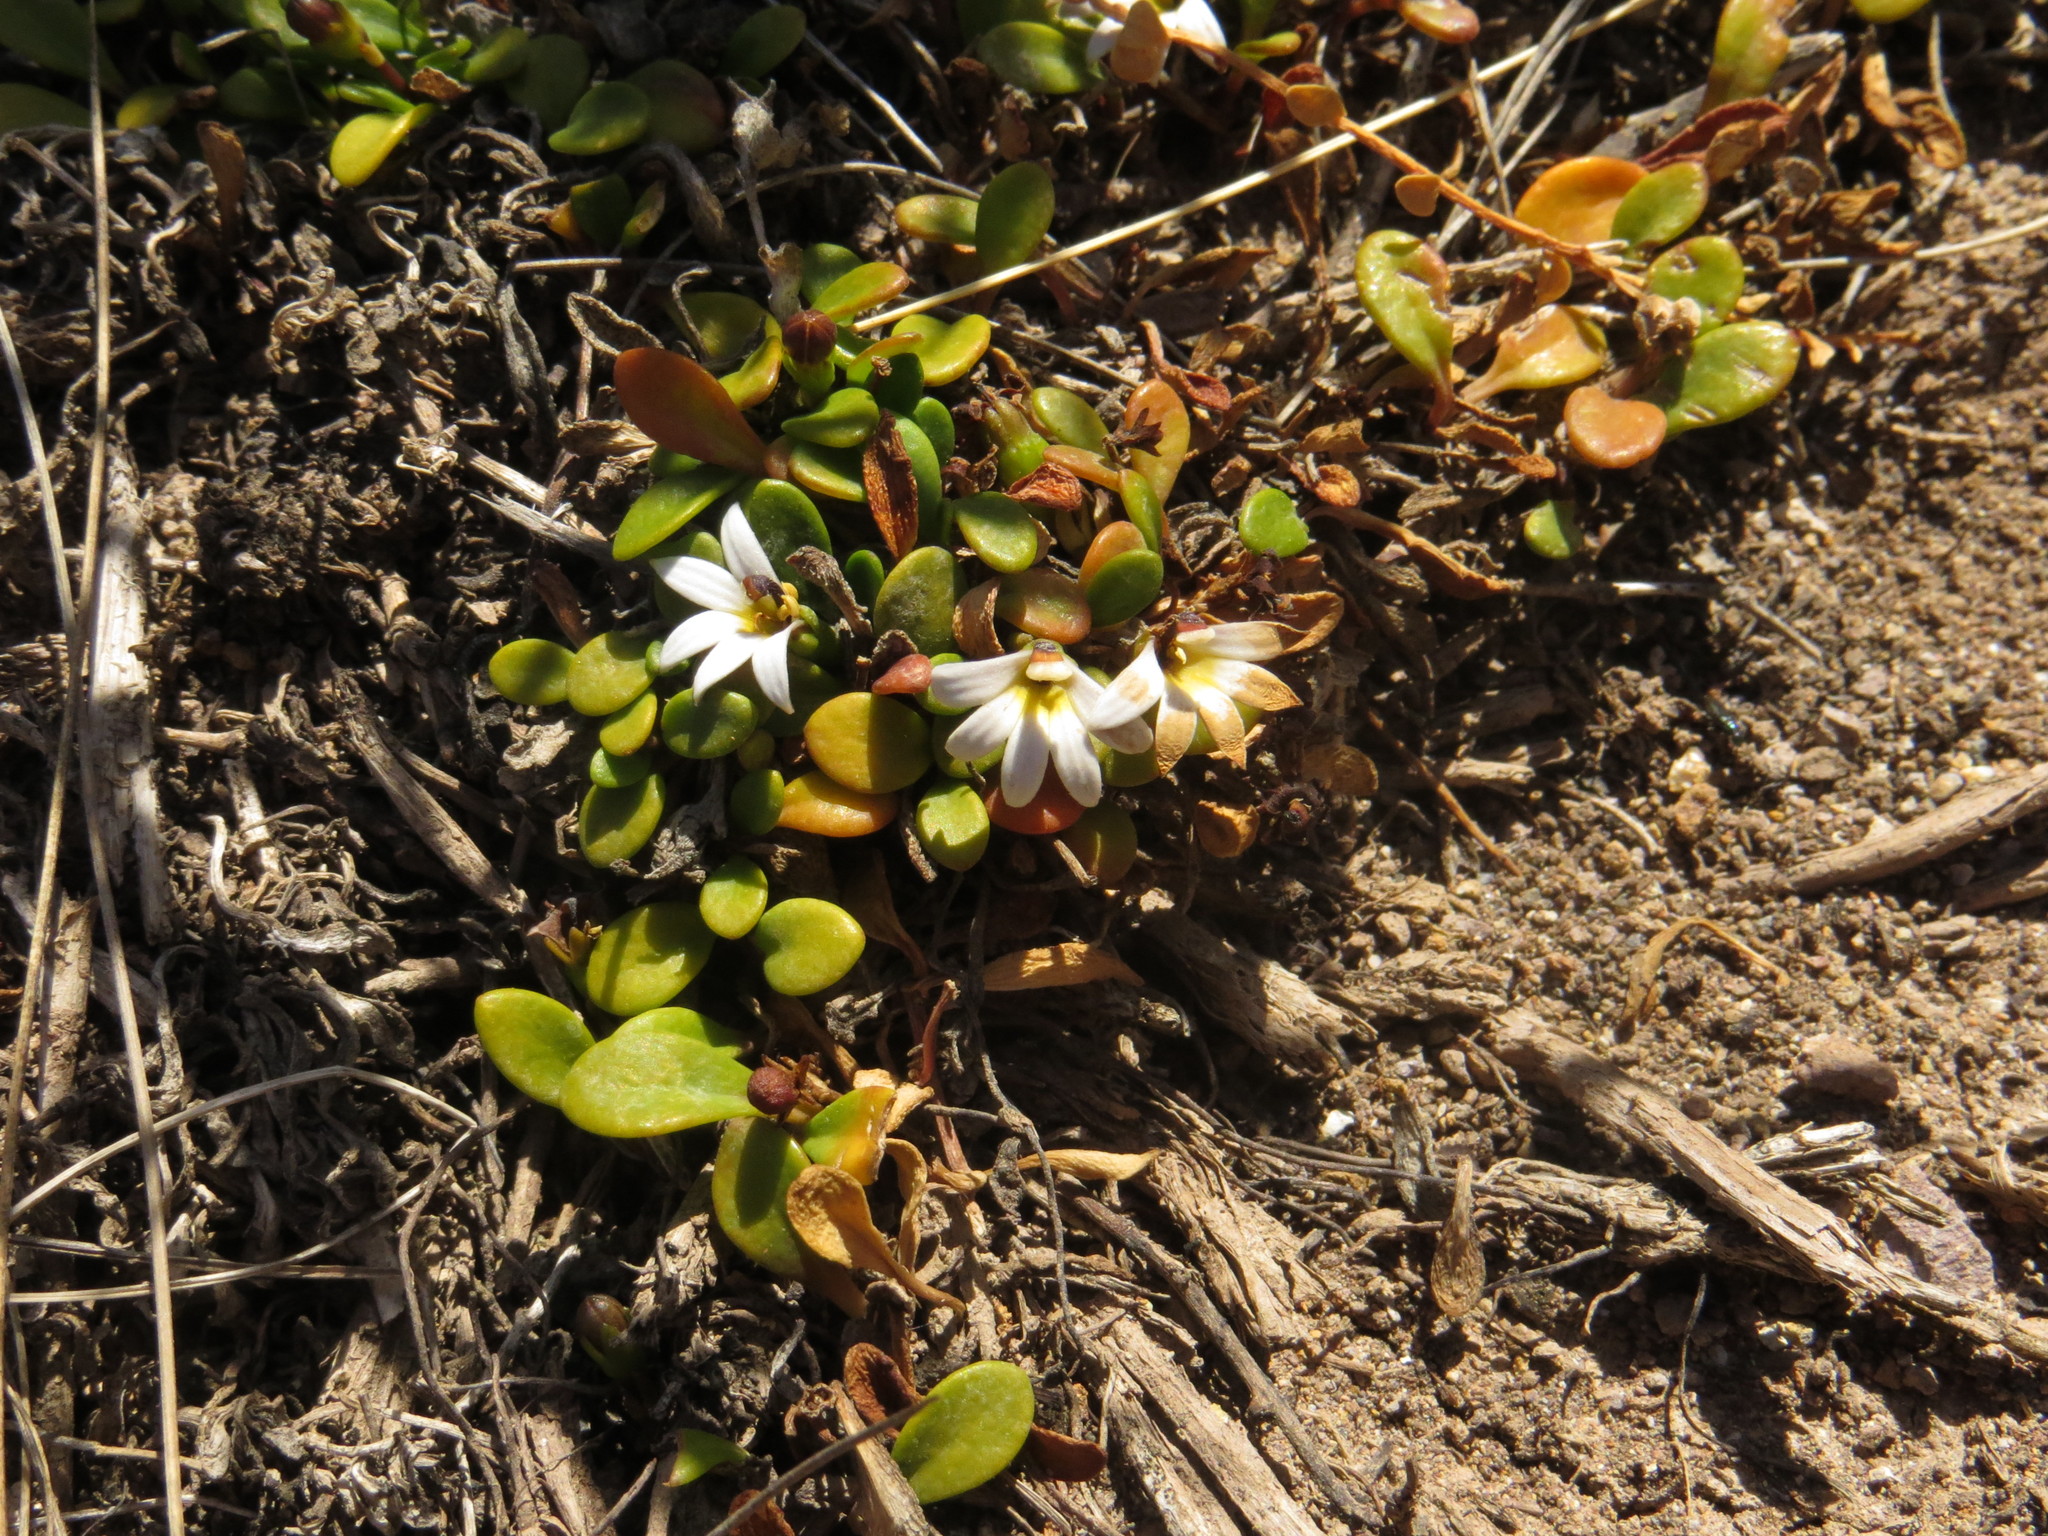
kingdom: Plantae
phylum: Tracheophyta
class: Magnoliopsida
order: Asterales
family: Goodeniaceae
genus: Goodenia
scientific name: Goodenia radicans
